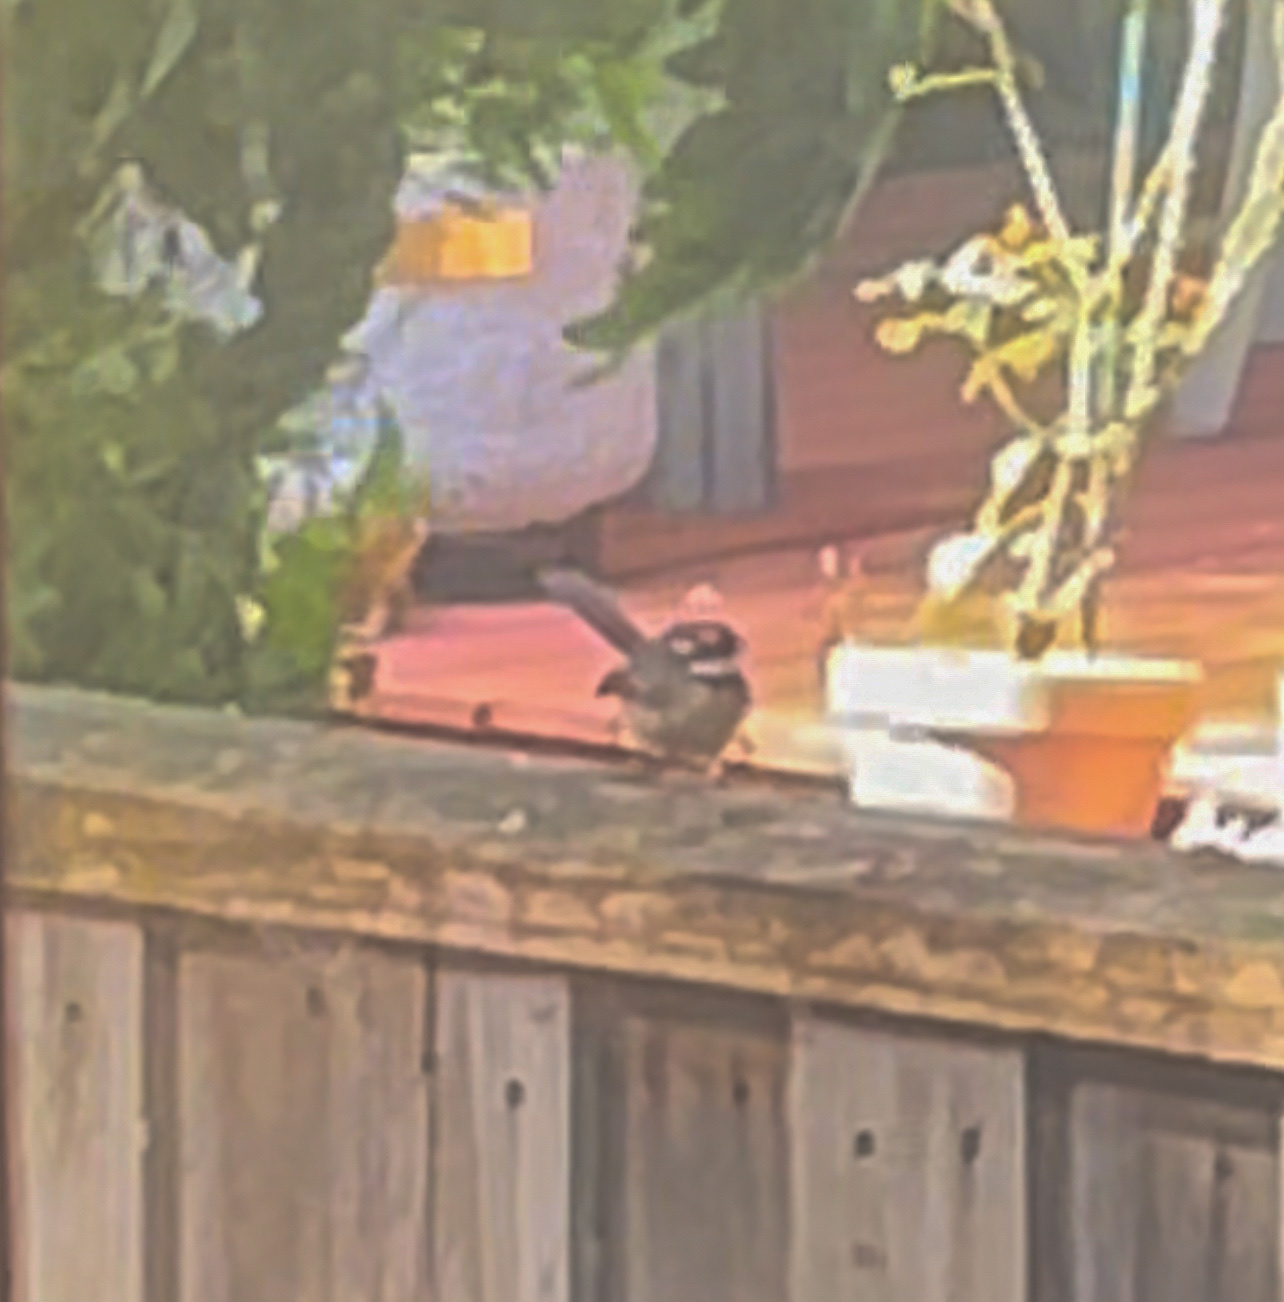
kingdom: Animalia
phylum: Chordata
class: Aves
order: Passeriformes
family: Rhipiduridae
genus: Rhipidura
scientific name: Rhipidura albiscapa
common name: Grey fantail
